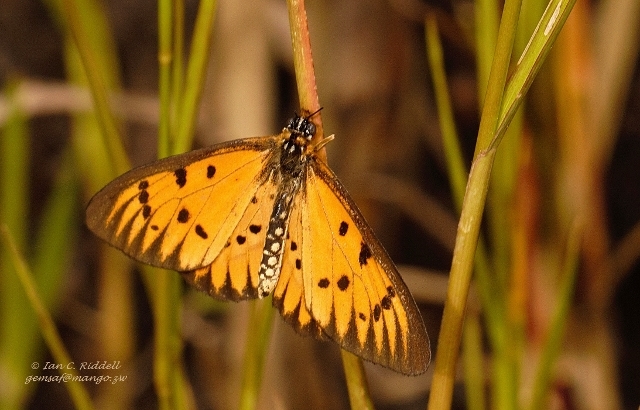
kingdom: Animalia
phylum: Arthropoda
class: Insecta
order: Lepidoptera
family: Nymphalidae
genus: Acraea
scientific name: Acraea rahira
